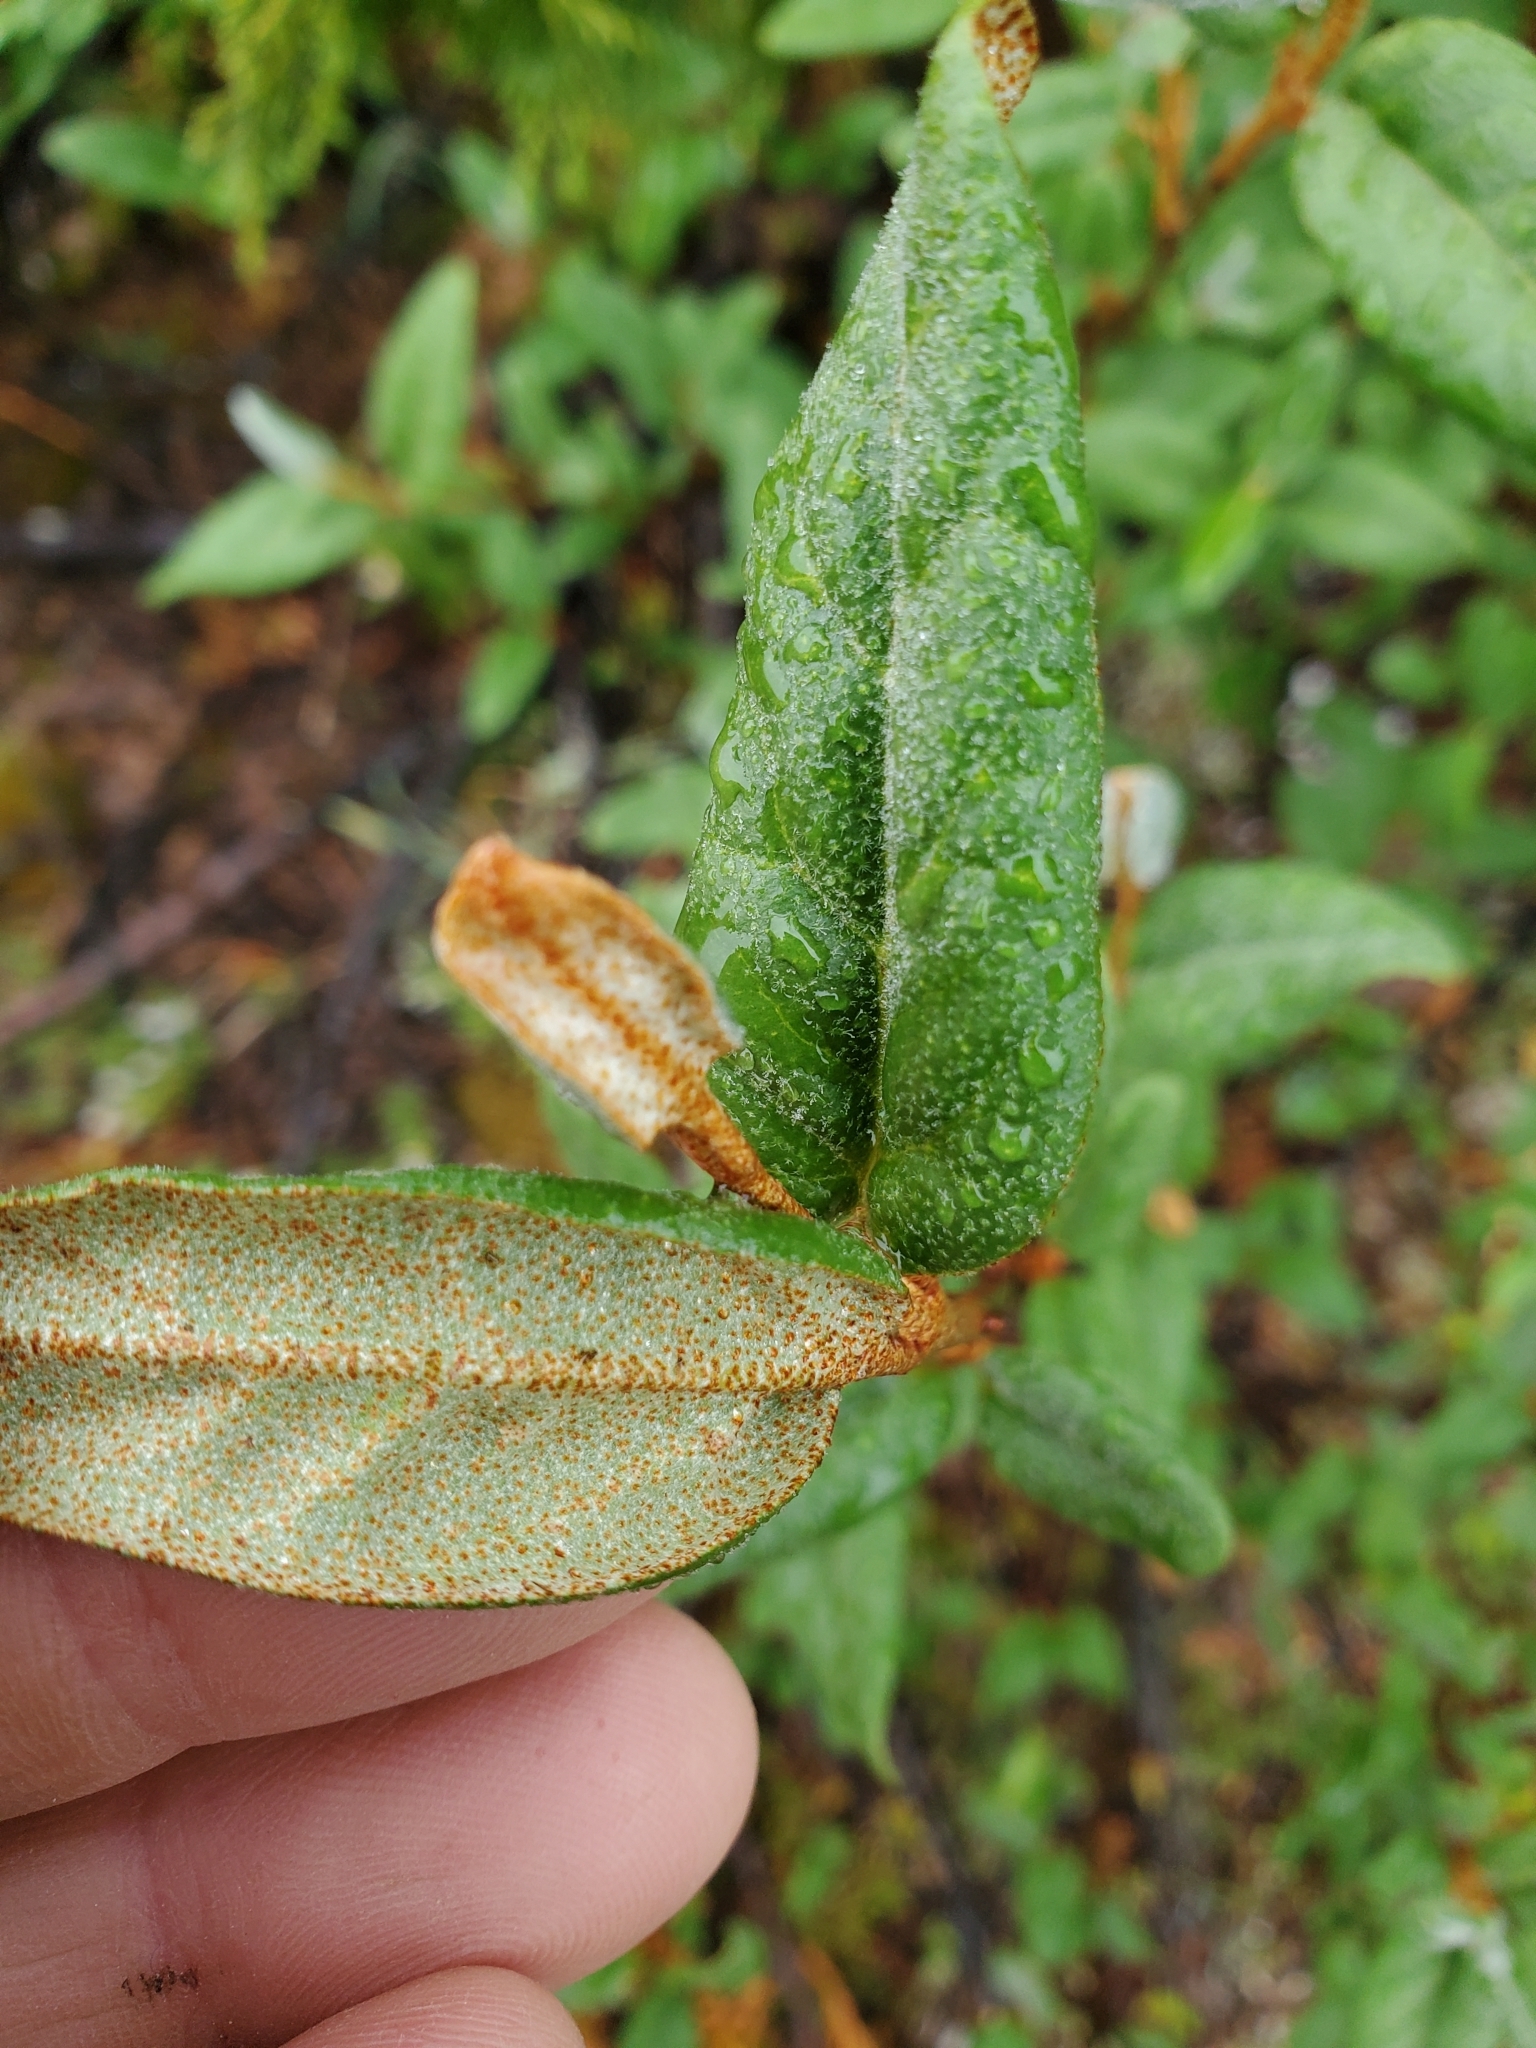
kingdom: Plantae
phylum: Tracheophyta
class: Magnoliopsida
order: Rosales
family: Elaeagnaceae
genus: Shepherdia
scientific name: Shepherdia canadensis
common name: Soapberry
